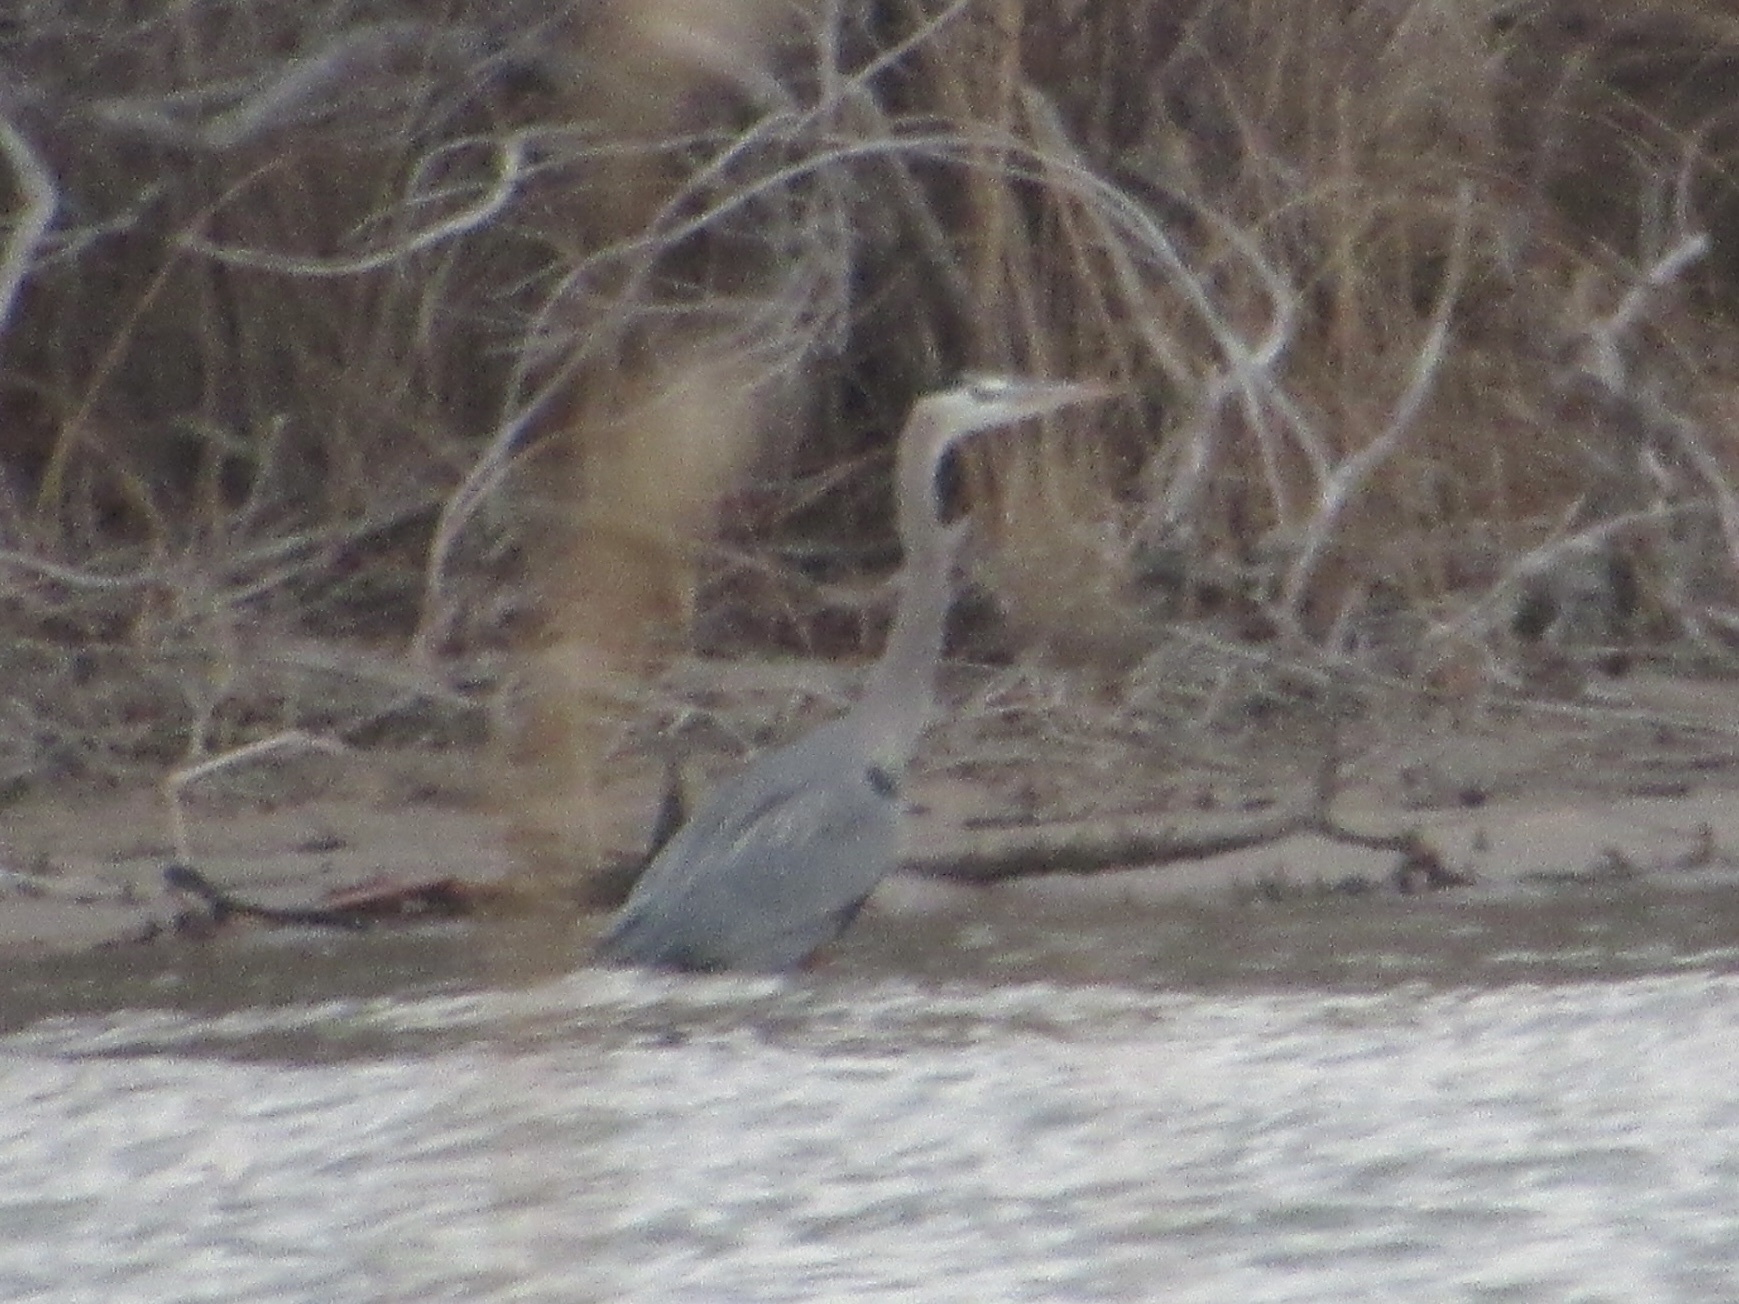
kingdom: Animalia
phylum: Chordata
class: Aves
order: Pelecaniformes
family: Ardeidae
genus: Ardea
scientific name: Ardea herodias
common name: Great blue heron
